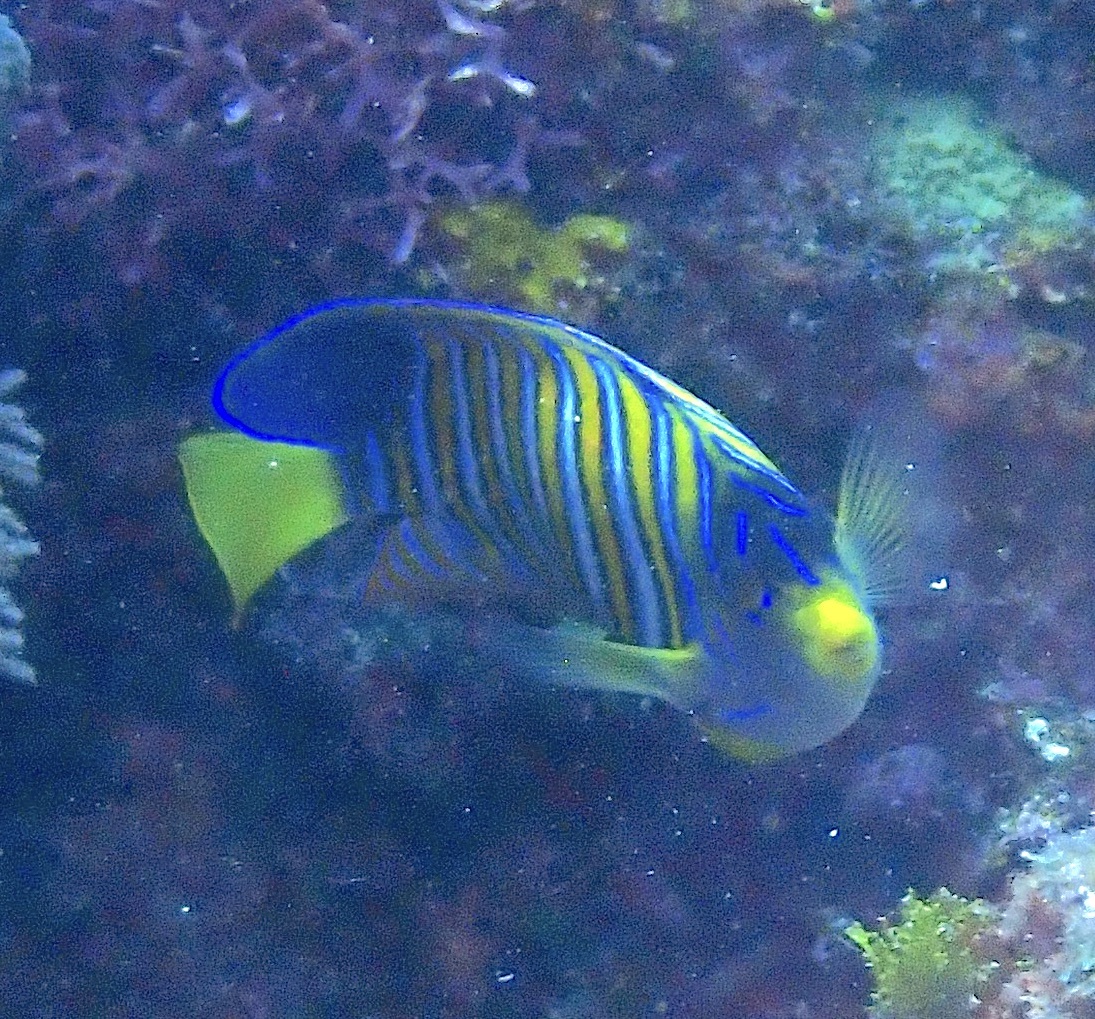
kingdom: Animalia
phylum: Chordata
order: Perciformes
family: Pomacanthidae
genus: Pygoplites
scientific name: Pygoplites diacanthus
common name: Regal angelfish
